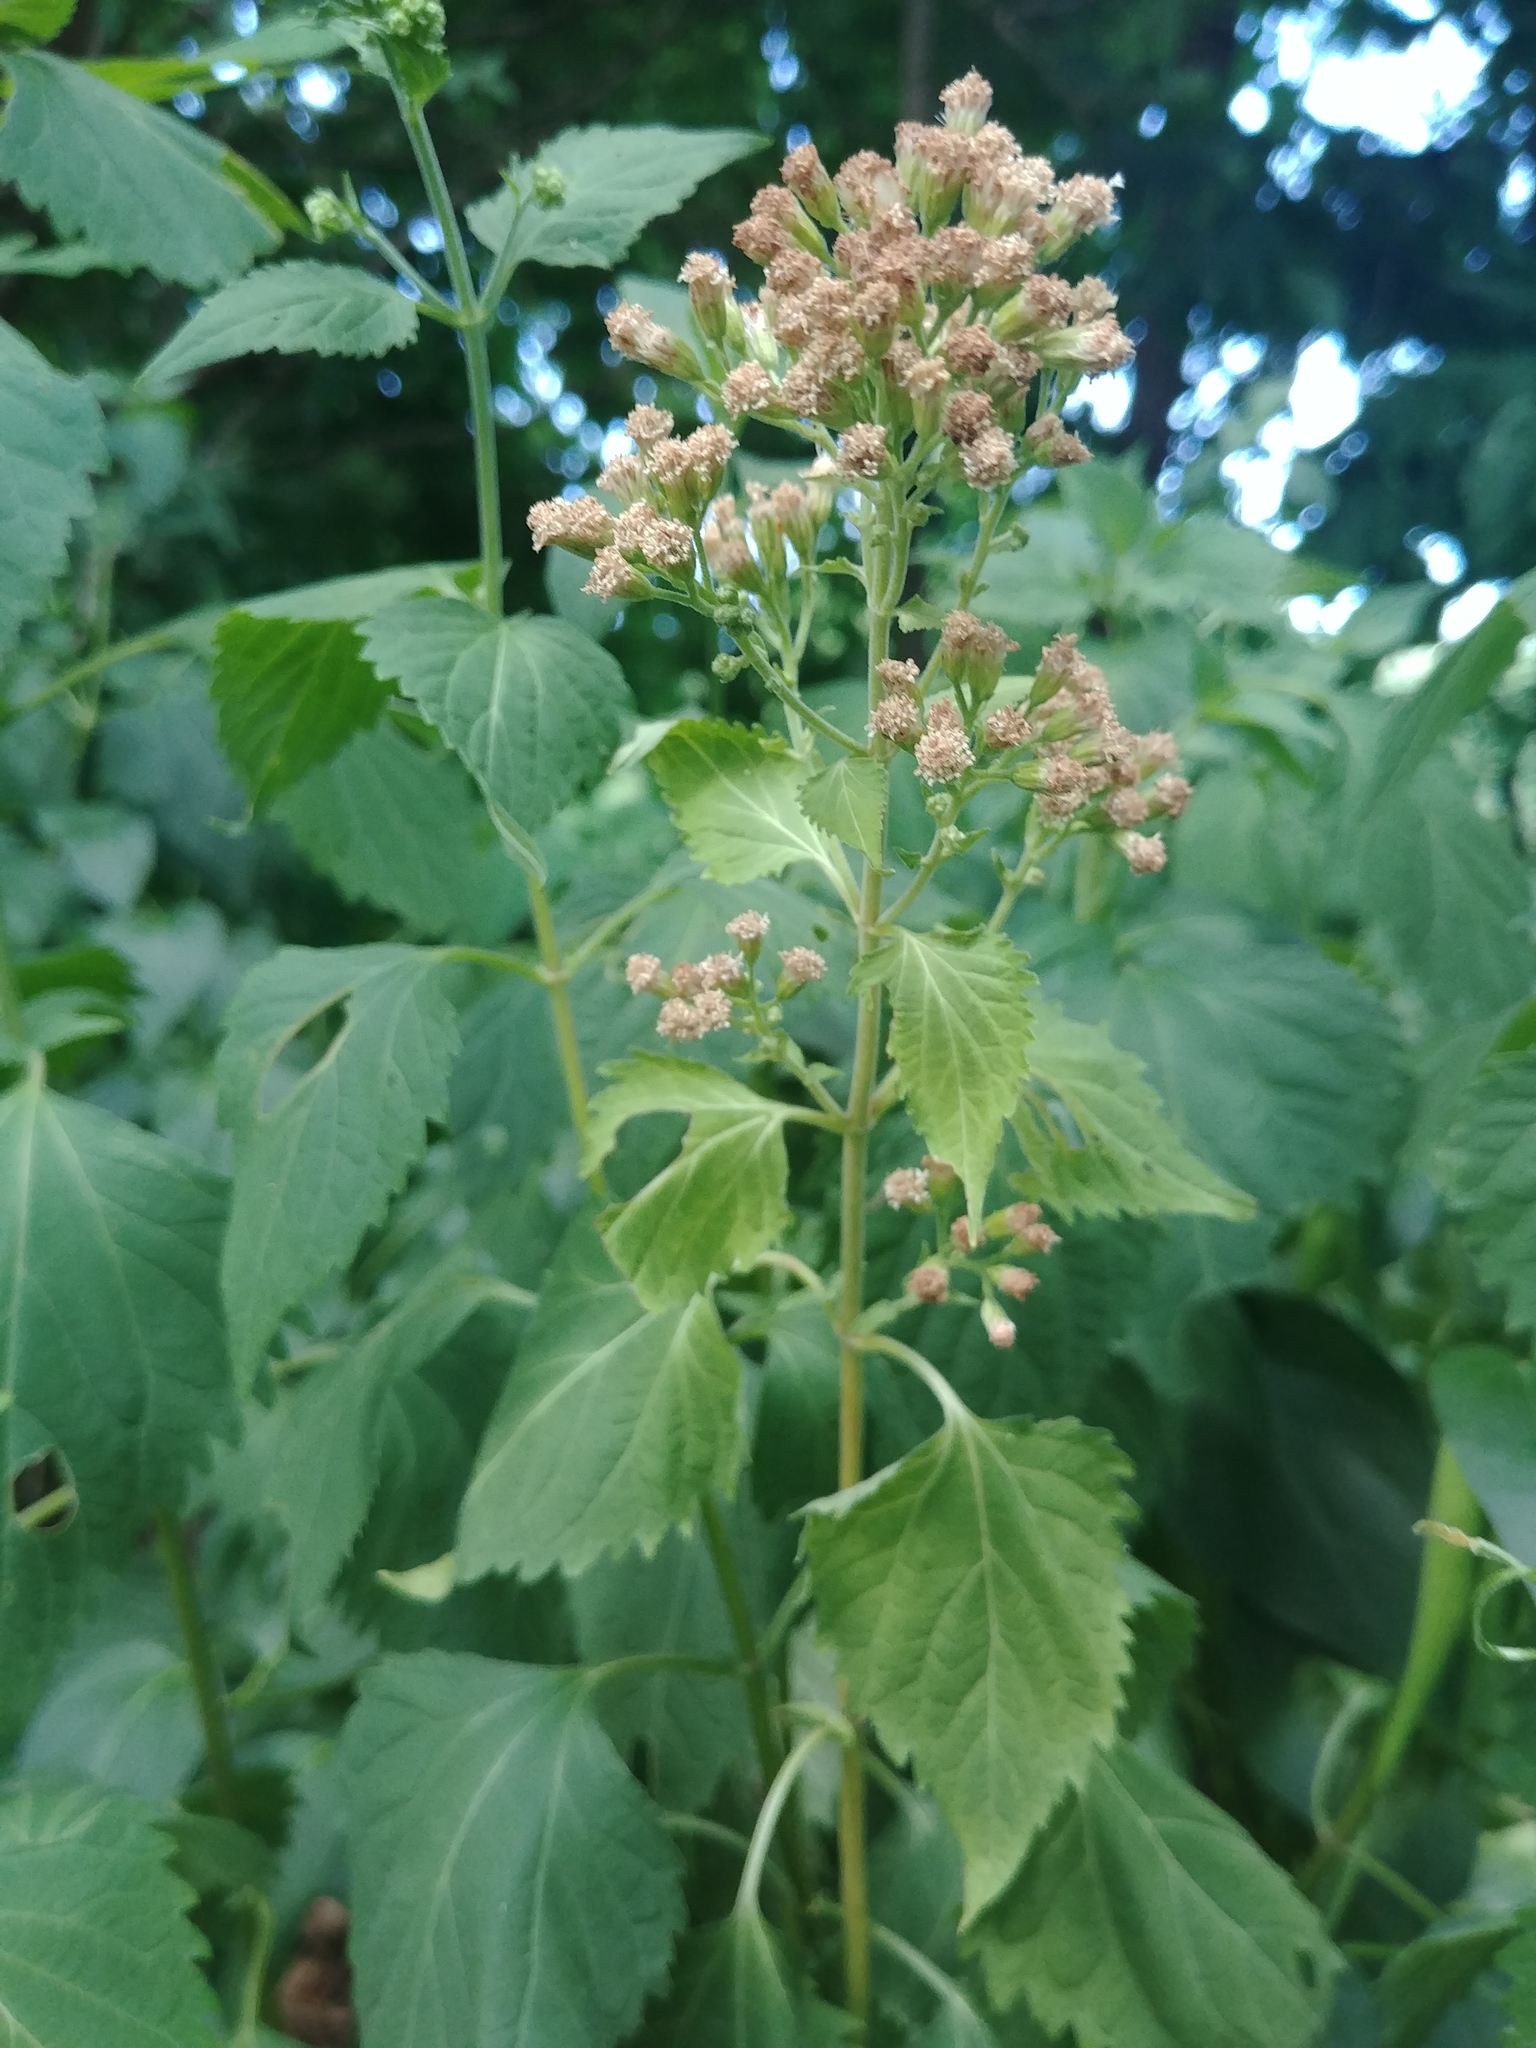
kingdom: Plantae
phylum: Tracheophyta
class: Magnoliopsida
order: Asterales
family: Asteraceae
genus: Ageratina
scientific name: Ageratina altissima
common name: White snakeroot
